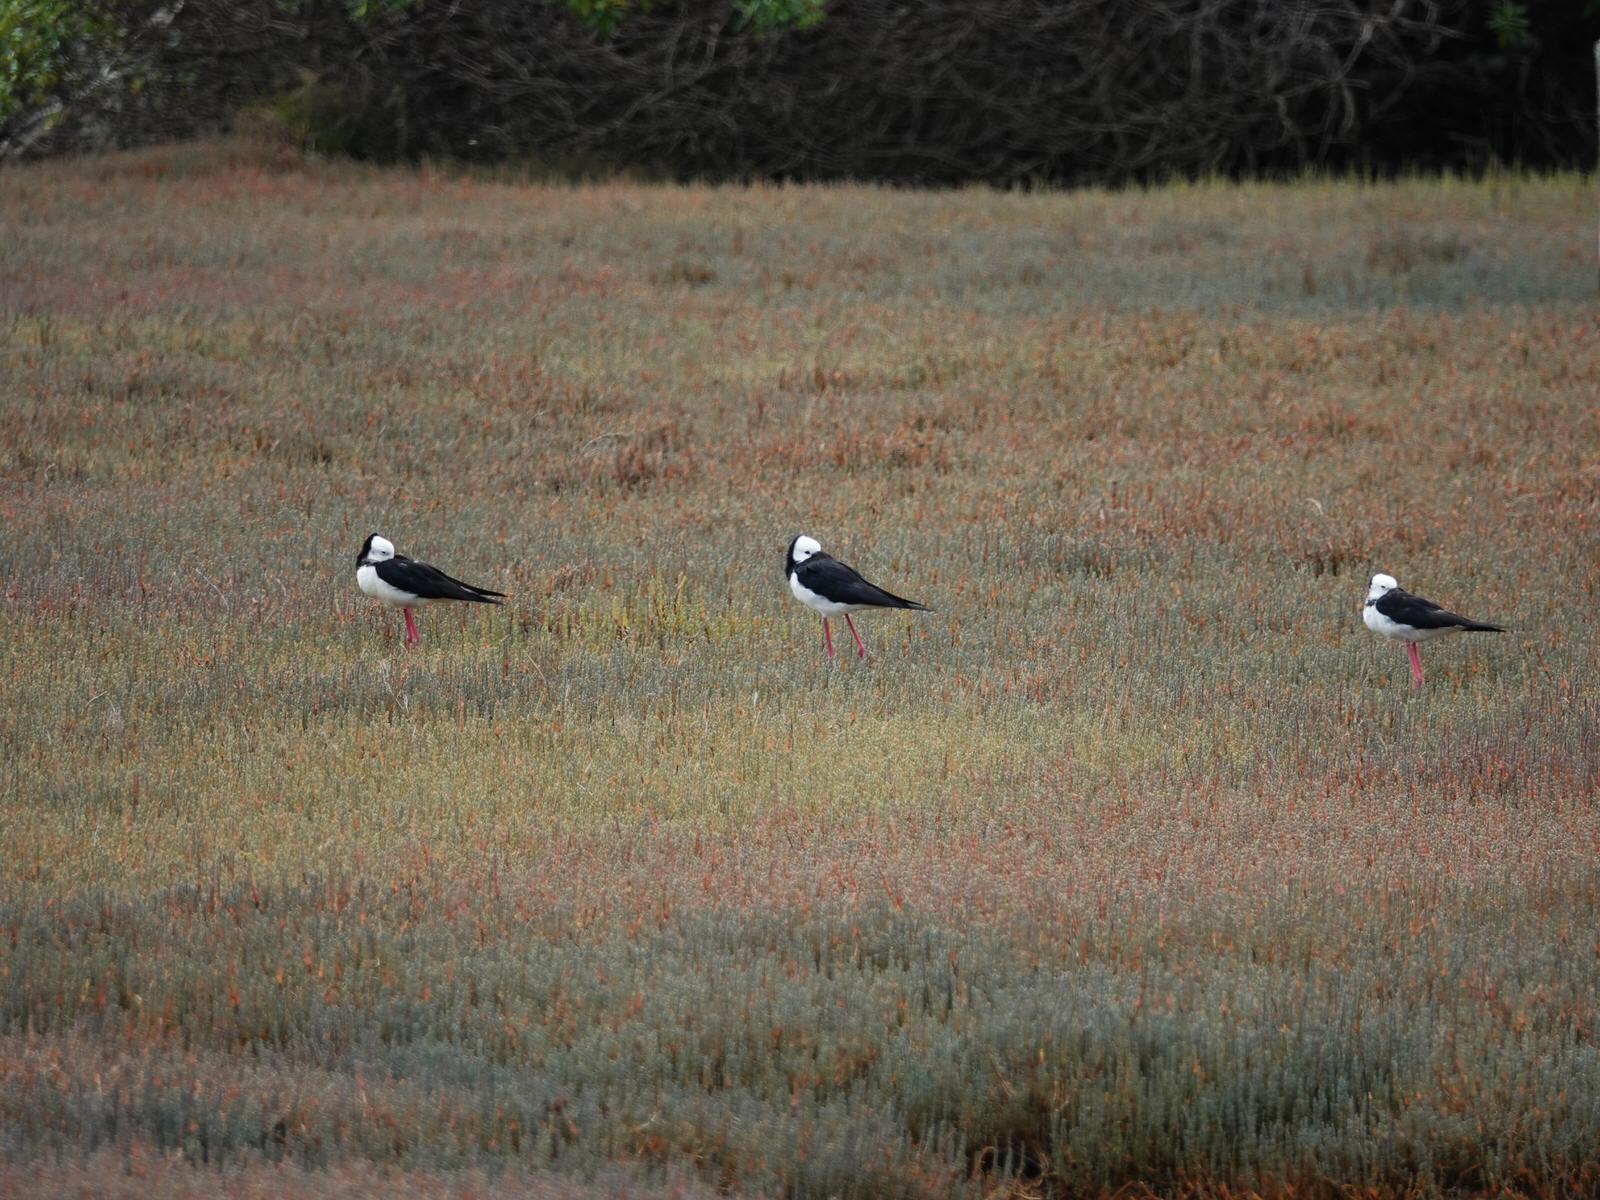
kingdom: Animalia
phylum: Chordata
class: Aves
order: Charadriiformes
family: Recurvirostridae
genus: Himantopus
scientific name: Himantopus leucocephalus
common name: White-headed stilt
